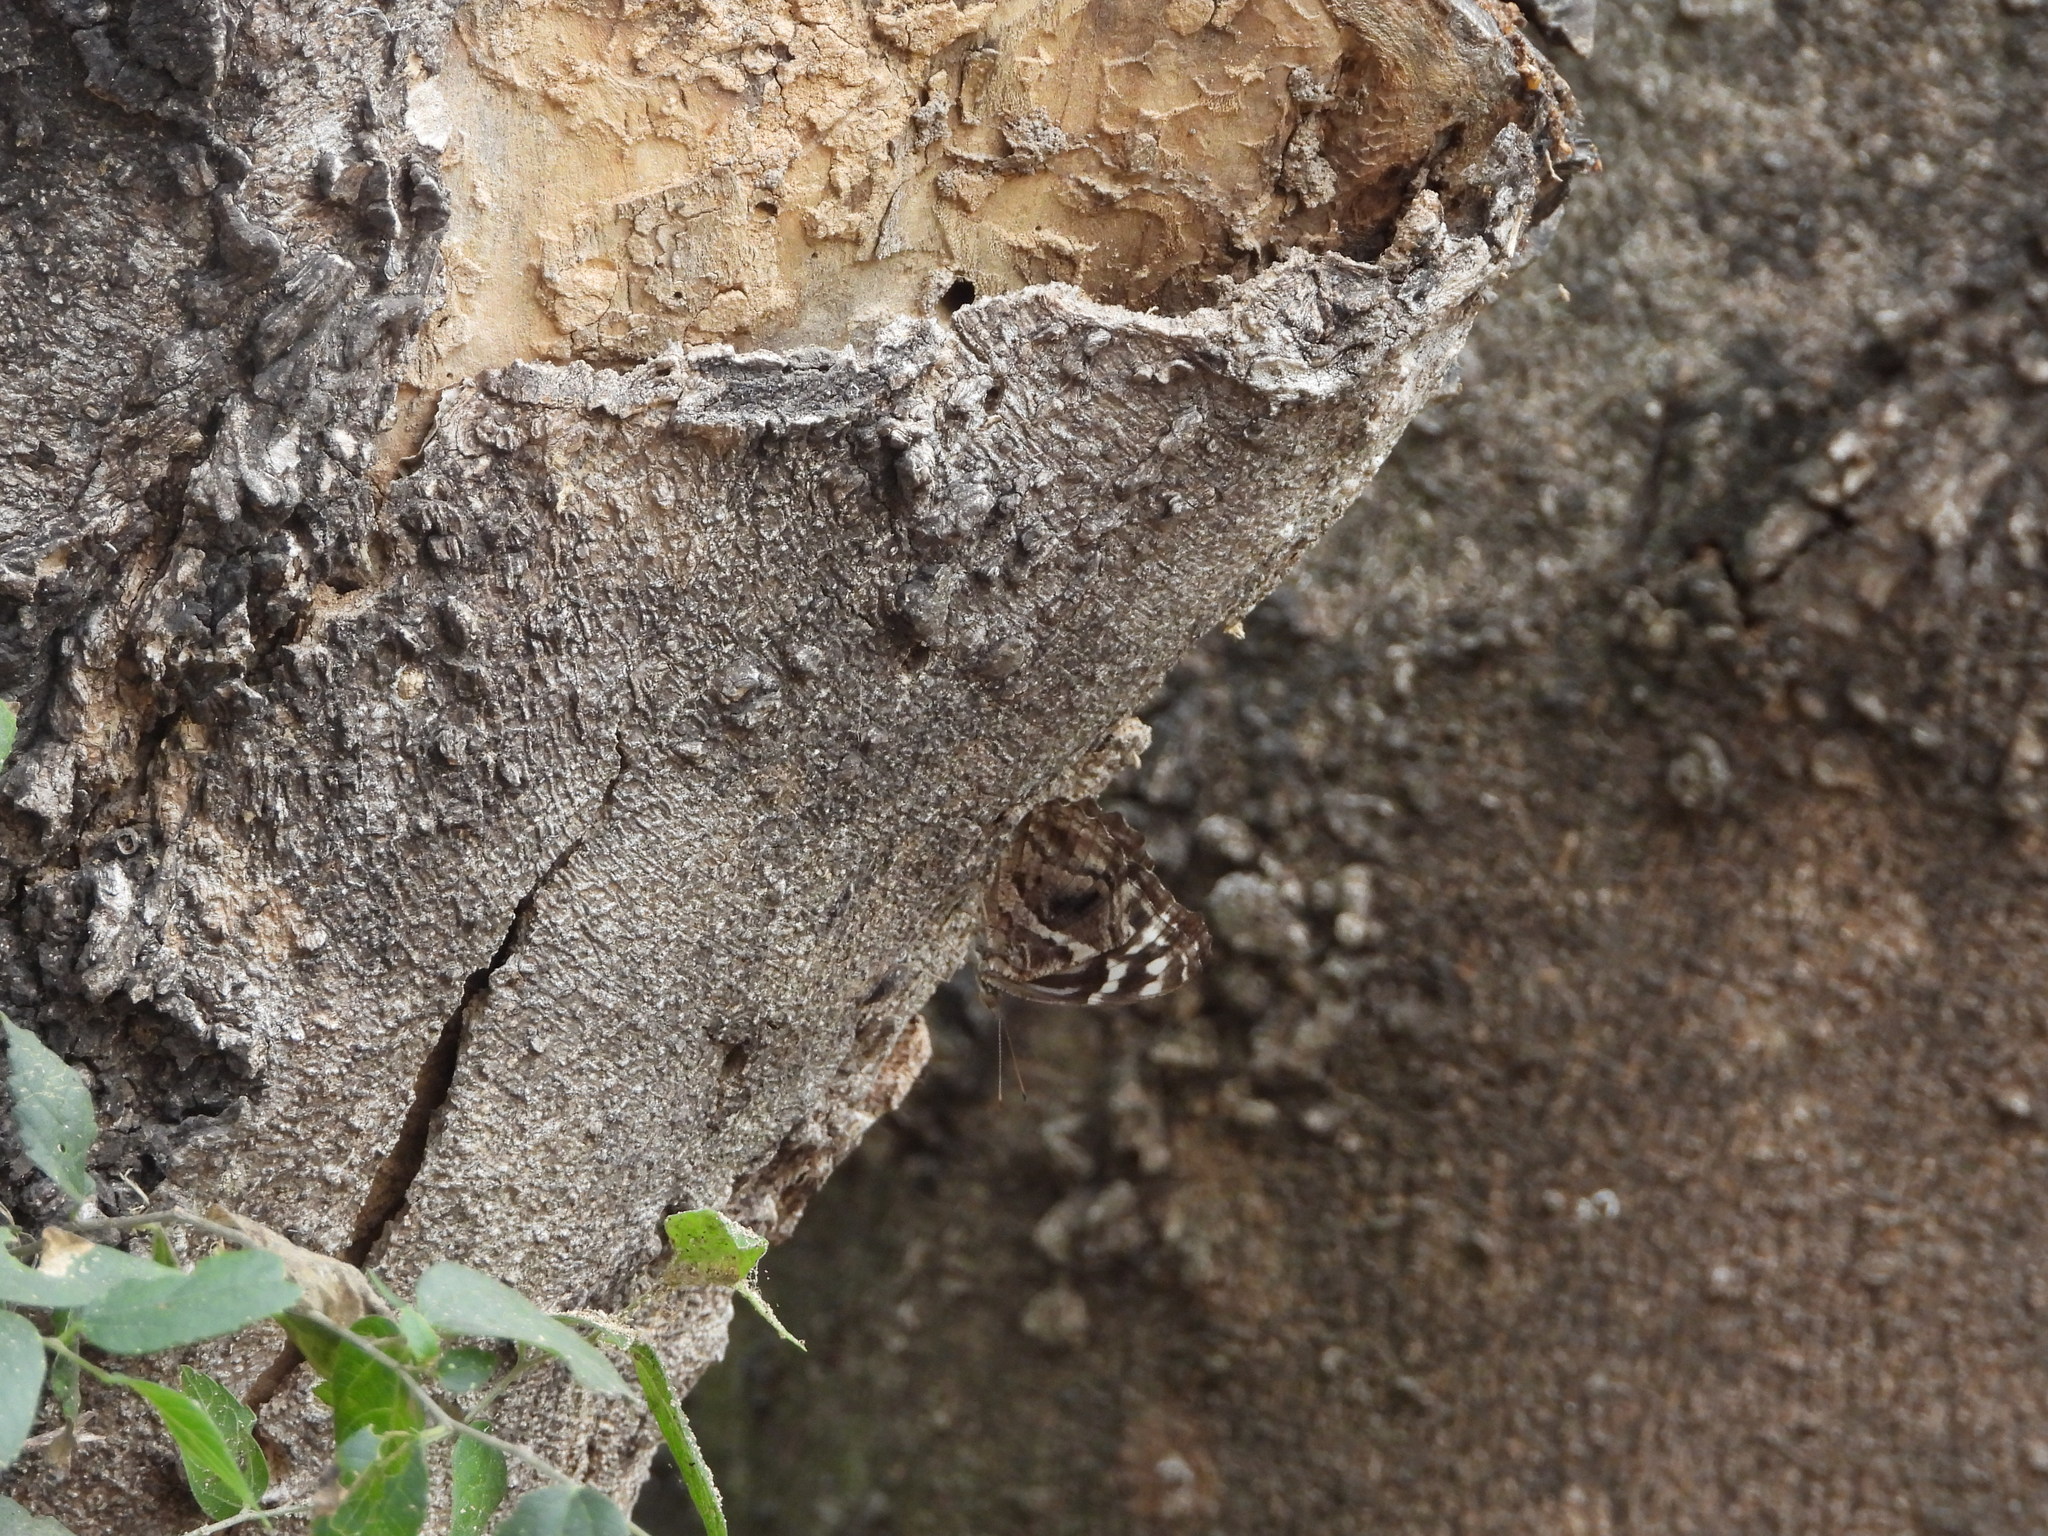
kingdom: Animalia
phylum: Arthropoda
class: Insecta
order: Lepidoptera
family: Nymphalidae
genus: Myscelia
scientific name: Myscelia ethusa
